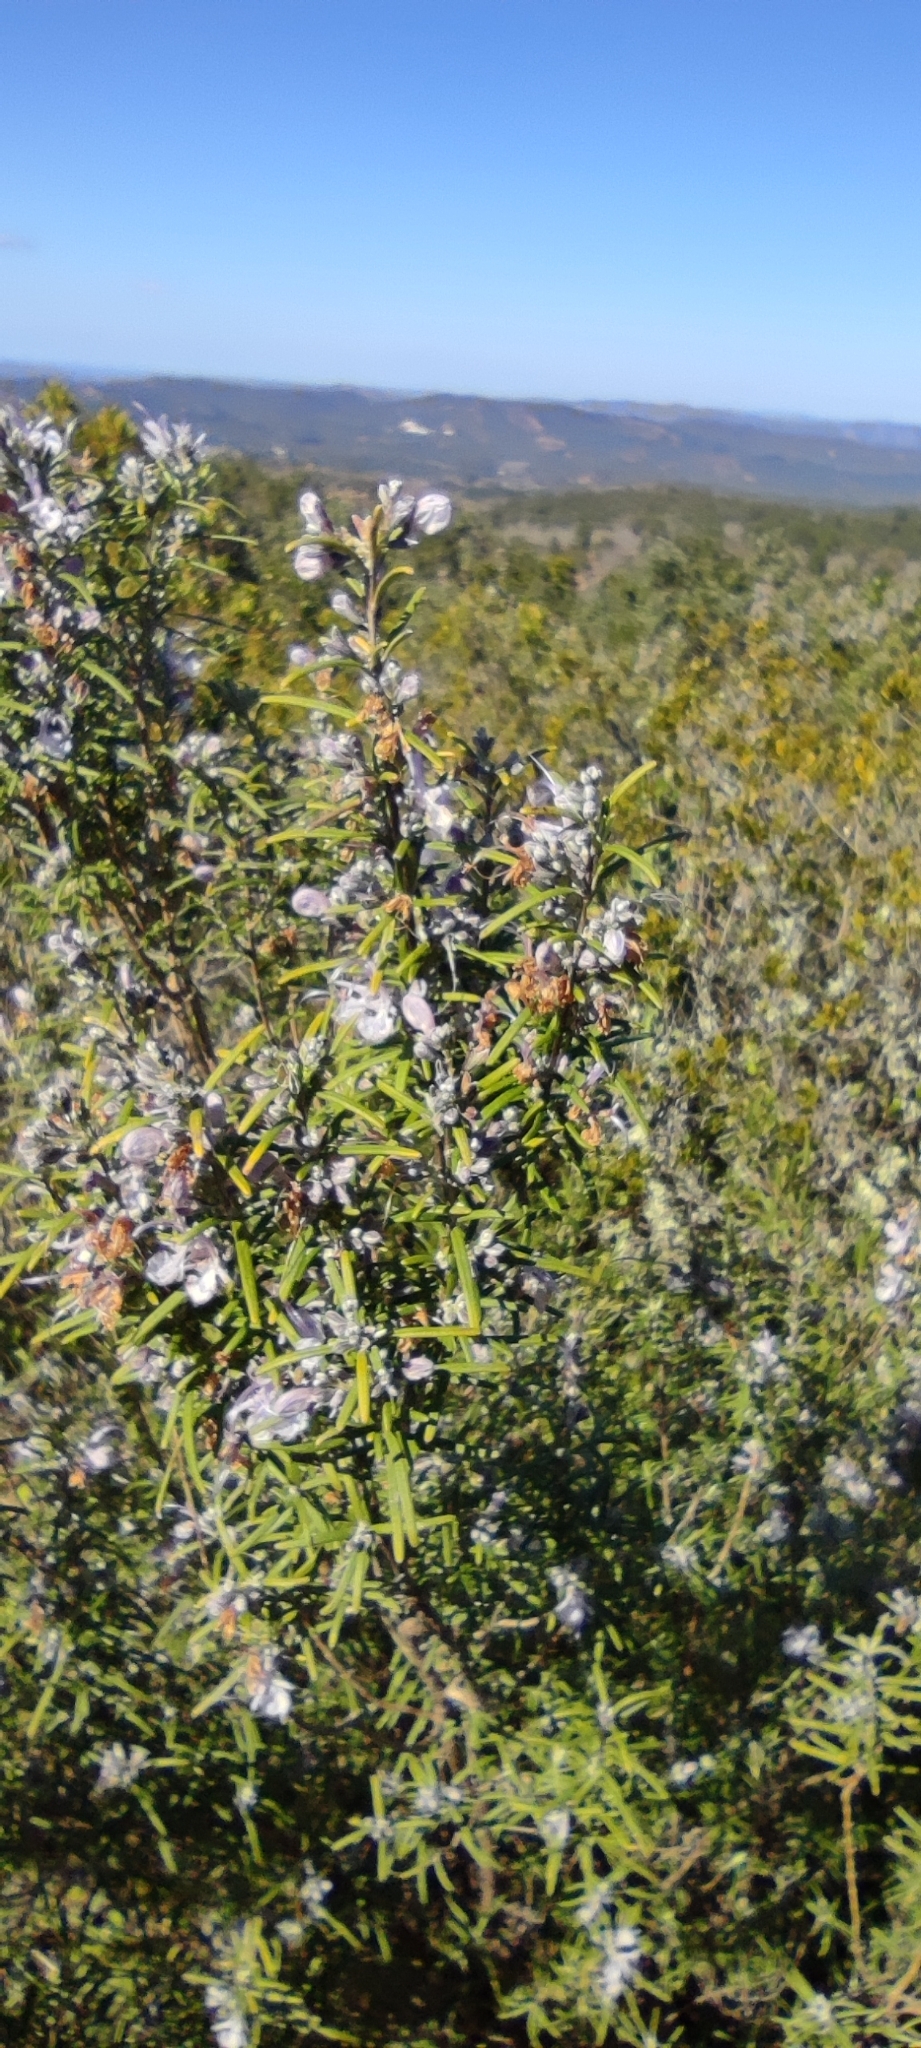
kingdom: Plantae
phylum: Tracheophyta
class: Magnoliopsida
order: Lamiales
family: Lamiaceae
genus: Salvia
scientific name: Salvia rosmarinus
